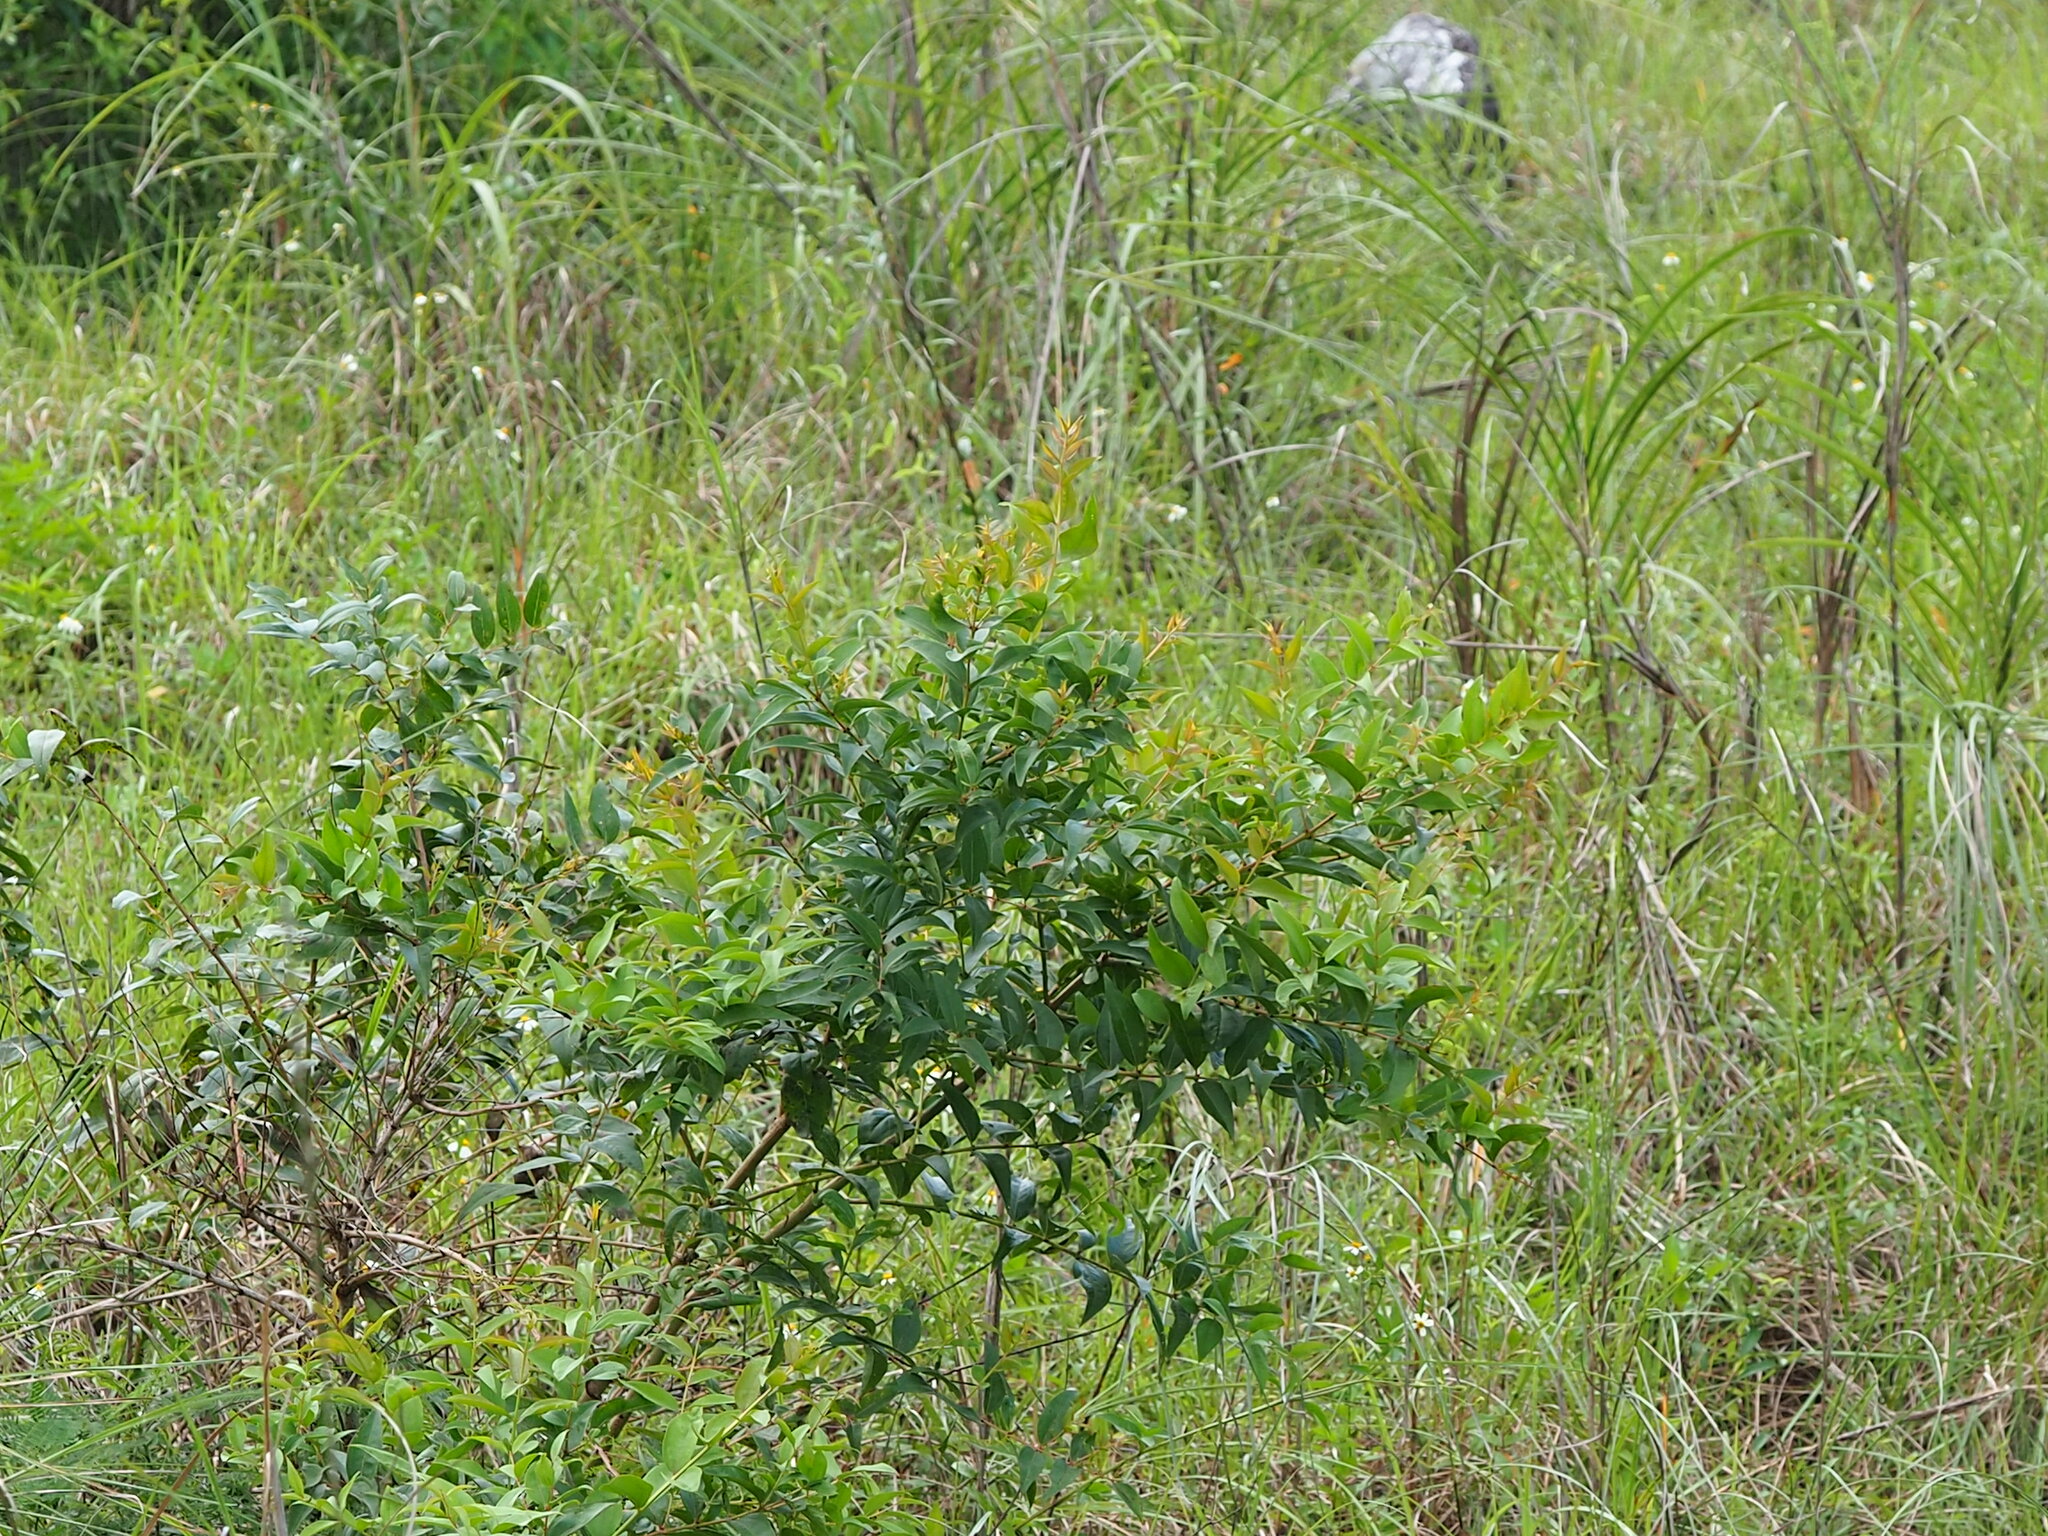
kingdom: Plantae
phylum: Tracheophyta
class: Magnoliopsida
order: Cucurbitales
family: Coriariaceae
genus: Coriaria
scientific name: Coriaria japonica
